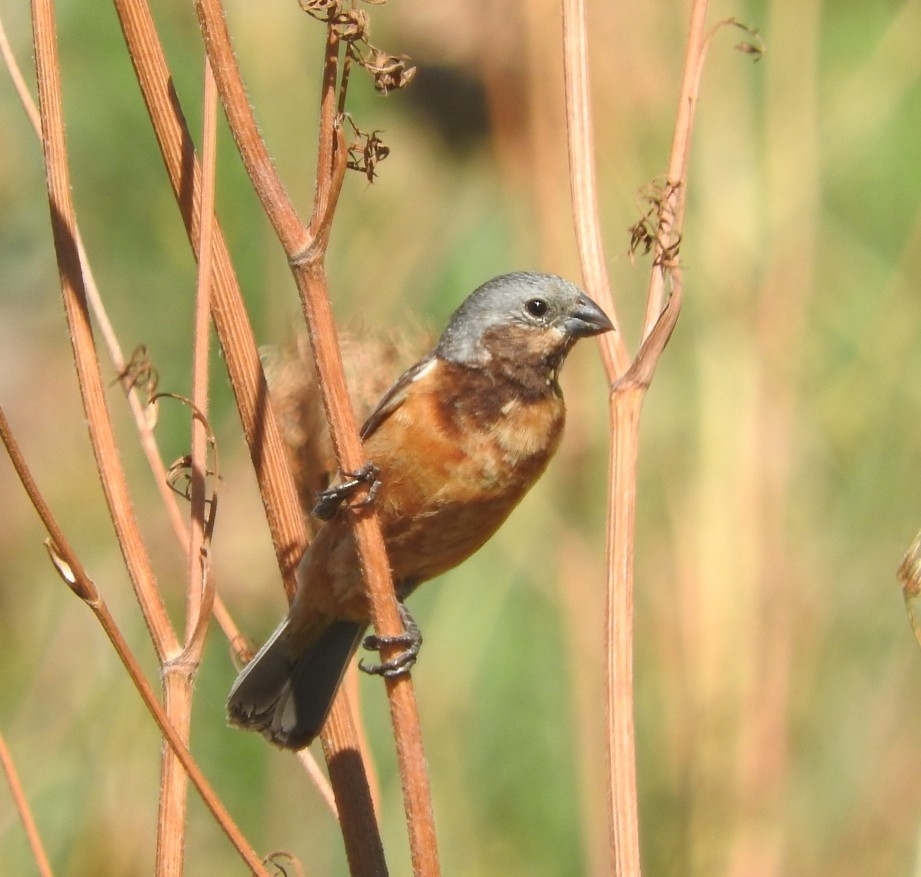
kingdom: Animalia
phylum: Chordata
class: Aves
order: Passeriformes
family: Thraupidae
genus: Sporophila
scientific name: Sporophila ruficollis
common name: Dark-throated seedeater
